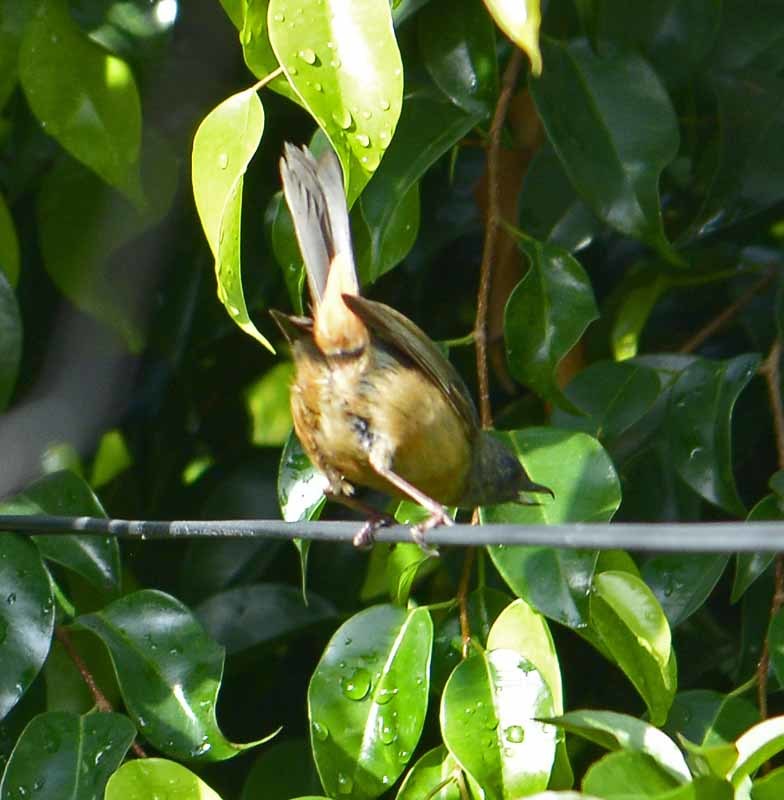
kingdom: Animalia
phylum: Chordata
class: Aves
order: Passeriformes
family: Thraupidae
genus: Diglossa
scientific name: Diglossa baritula
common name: Cinnamon-bellied flowerpiercer
